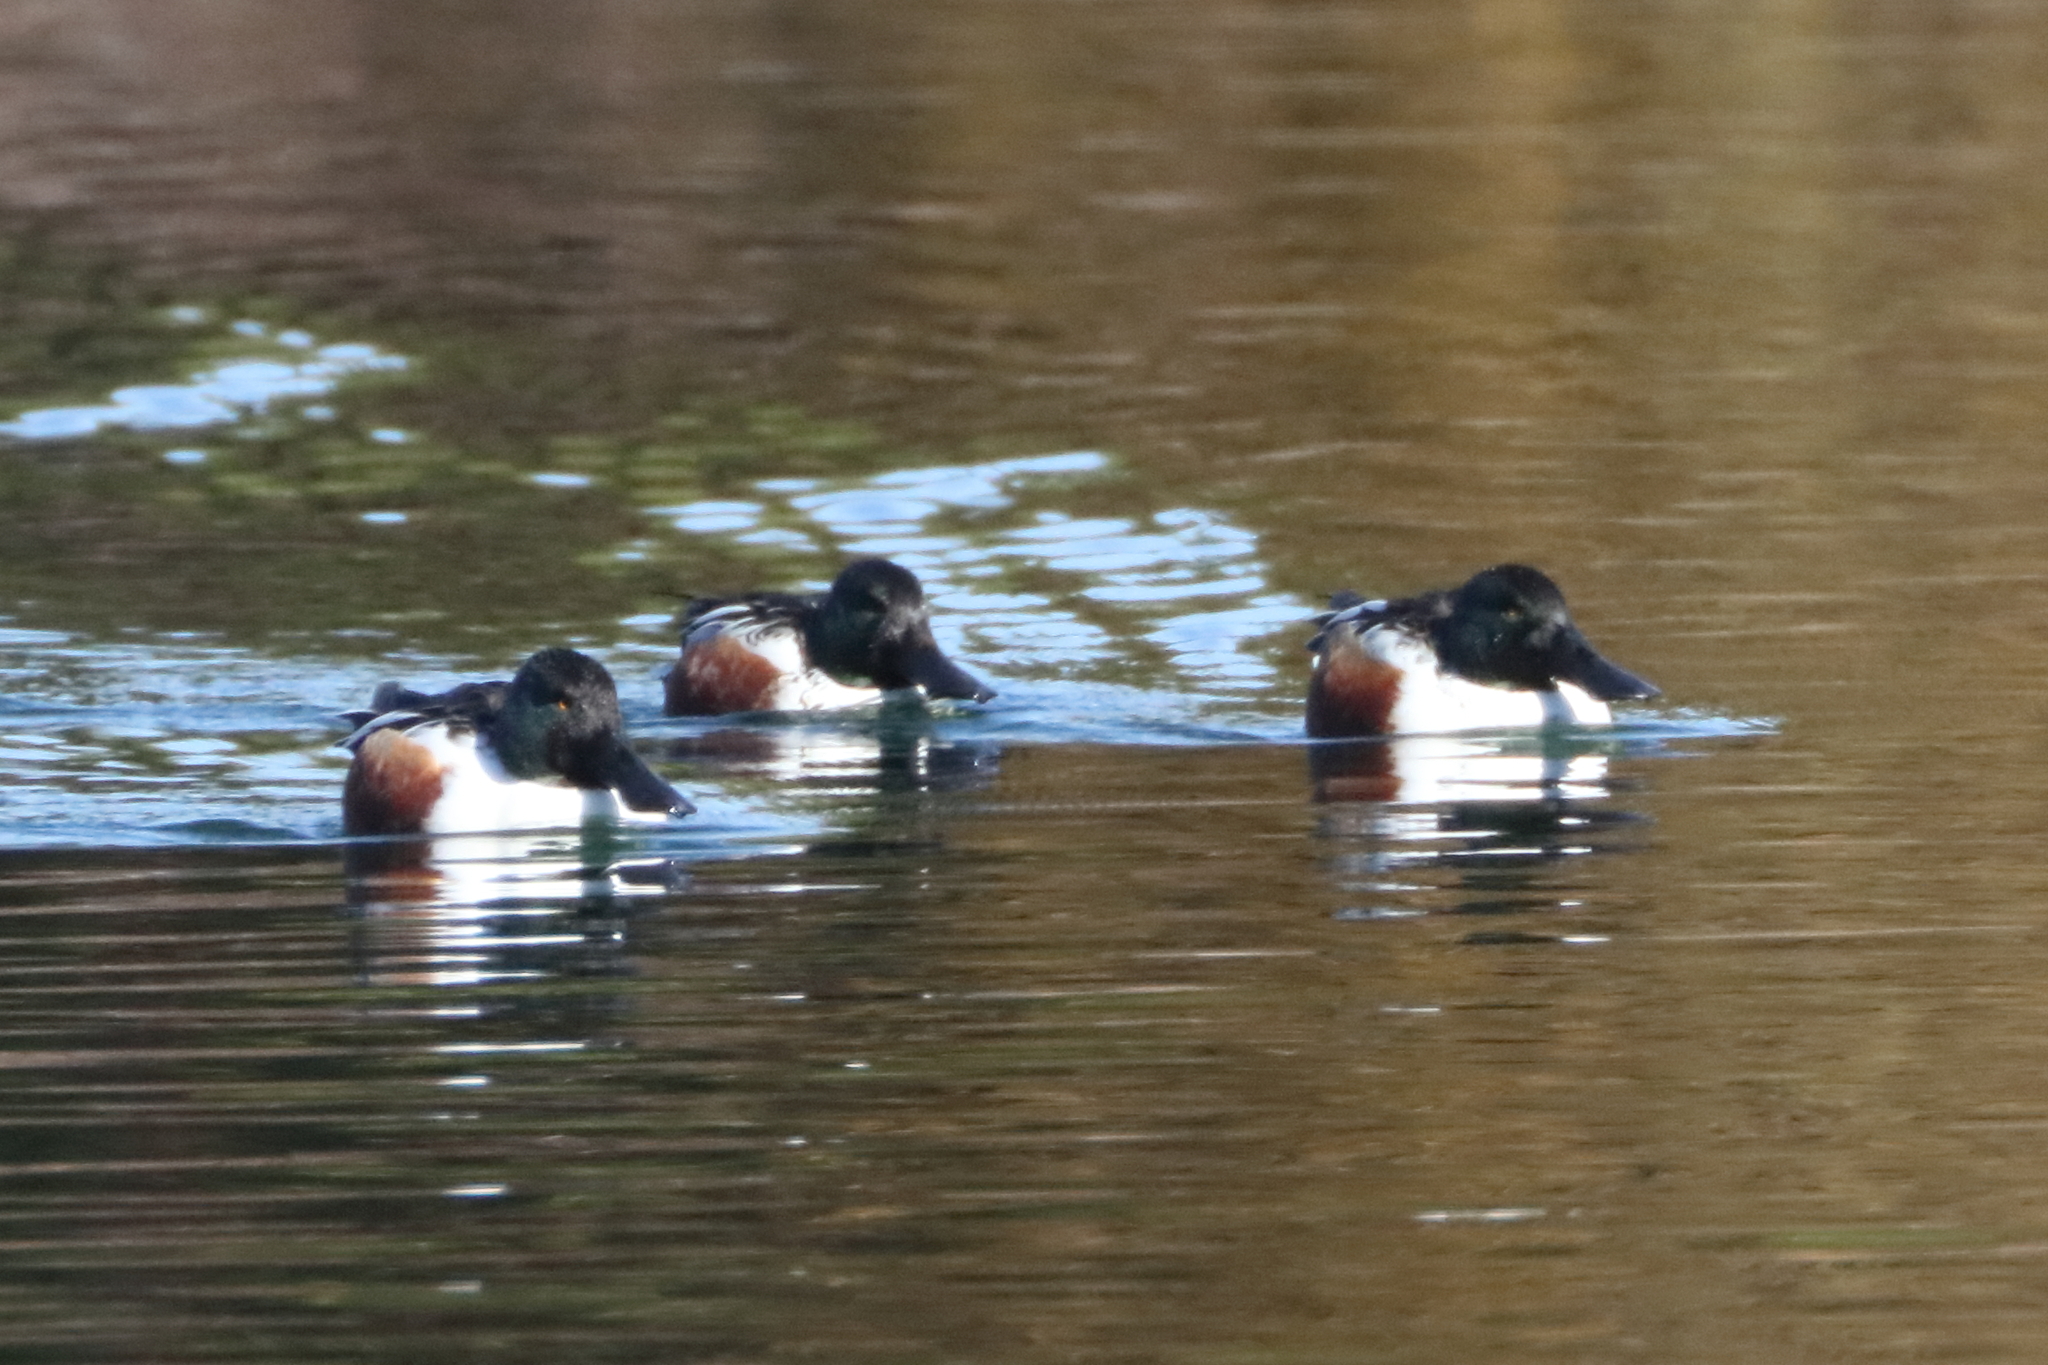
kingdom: Animalia
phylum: Chordata
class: Aves
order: Anseriformes
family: Anatidae
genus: Spatula
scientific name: Spatula clypeata
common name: Northern shoveler
